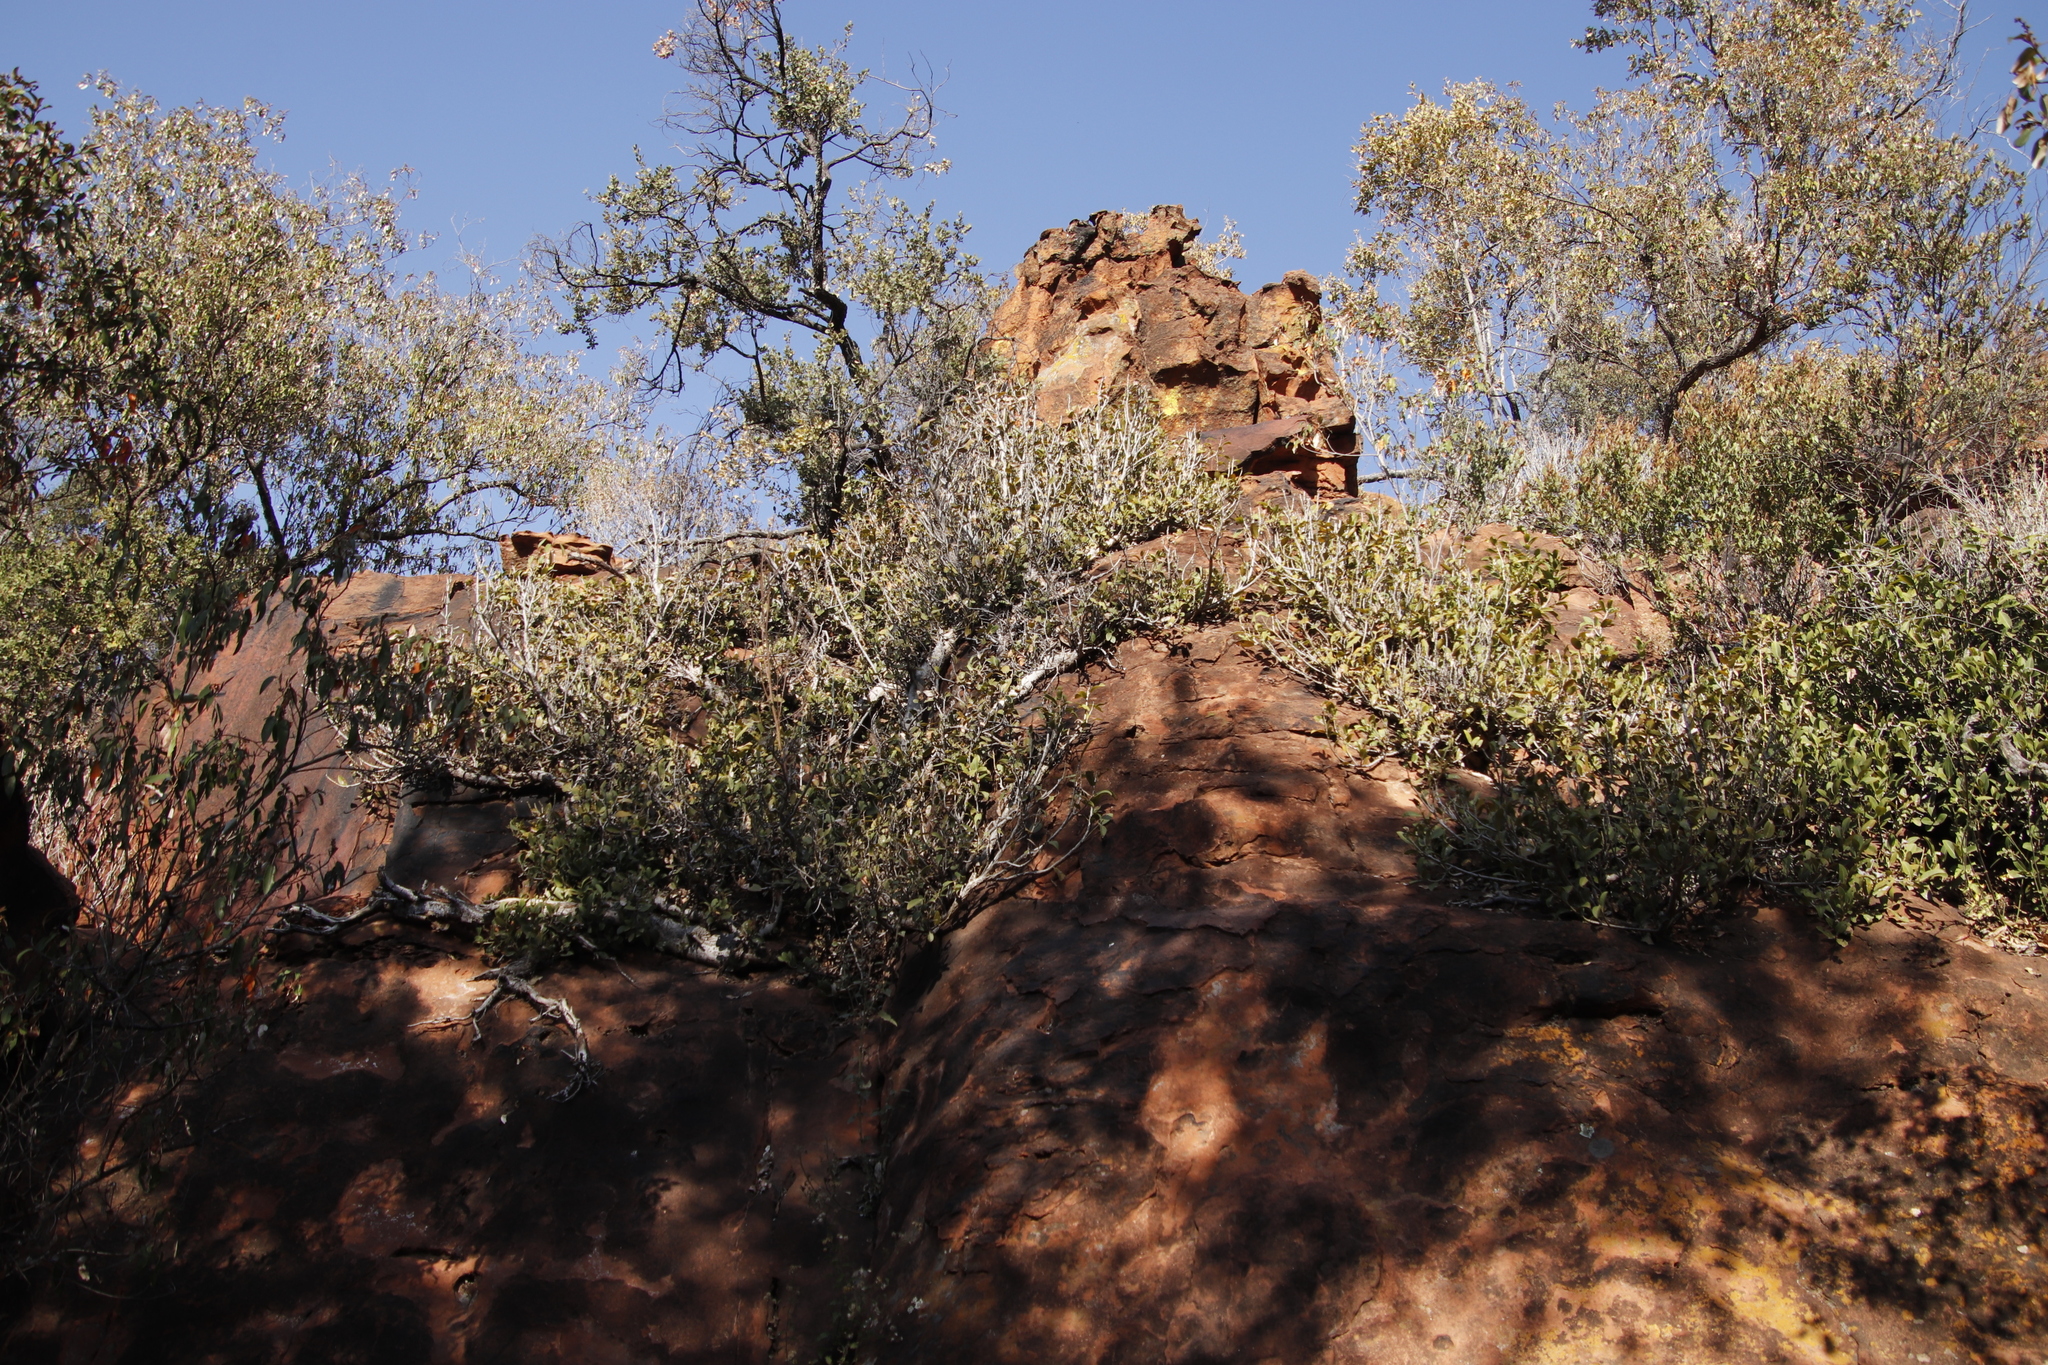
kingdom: Plantae
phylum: Tracheophyta
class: Magnoliopsida
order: Rosales
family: Moraceae
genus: Ficus
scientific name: Ficus ilicina
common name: Laurel rock fig
